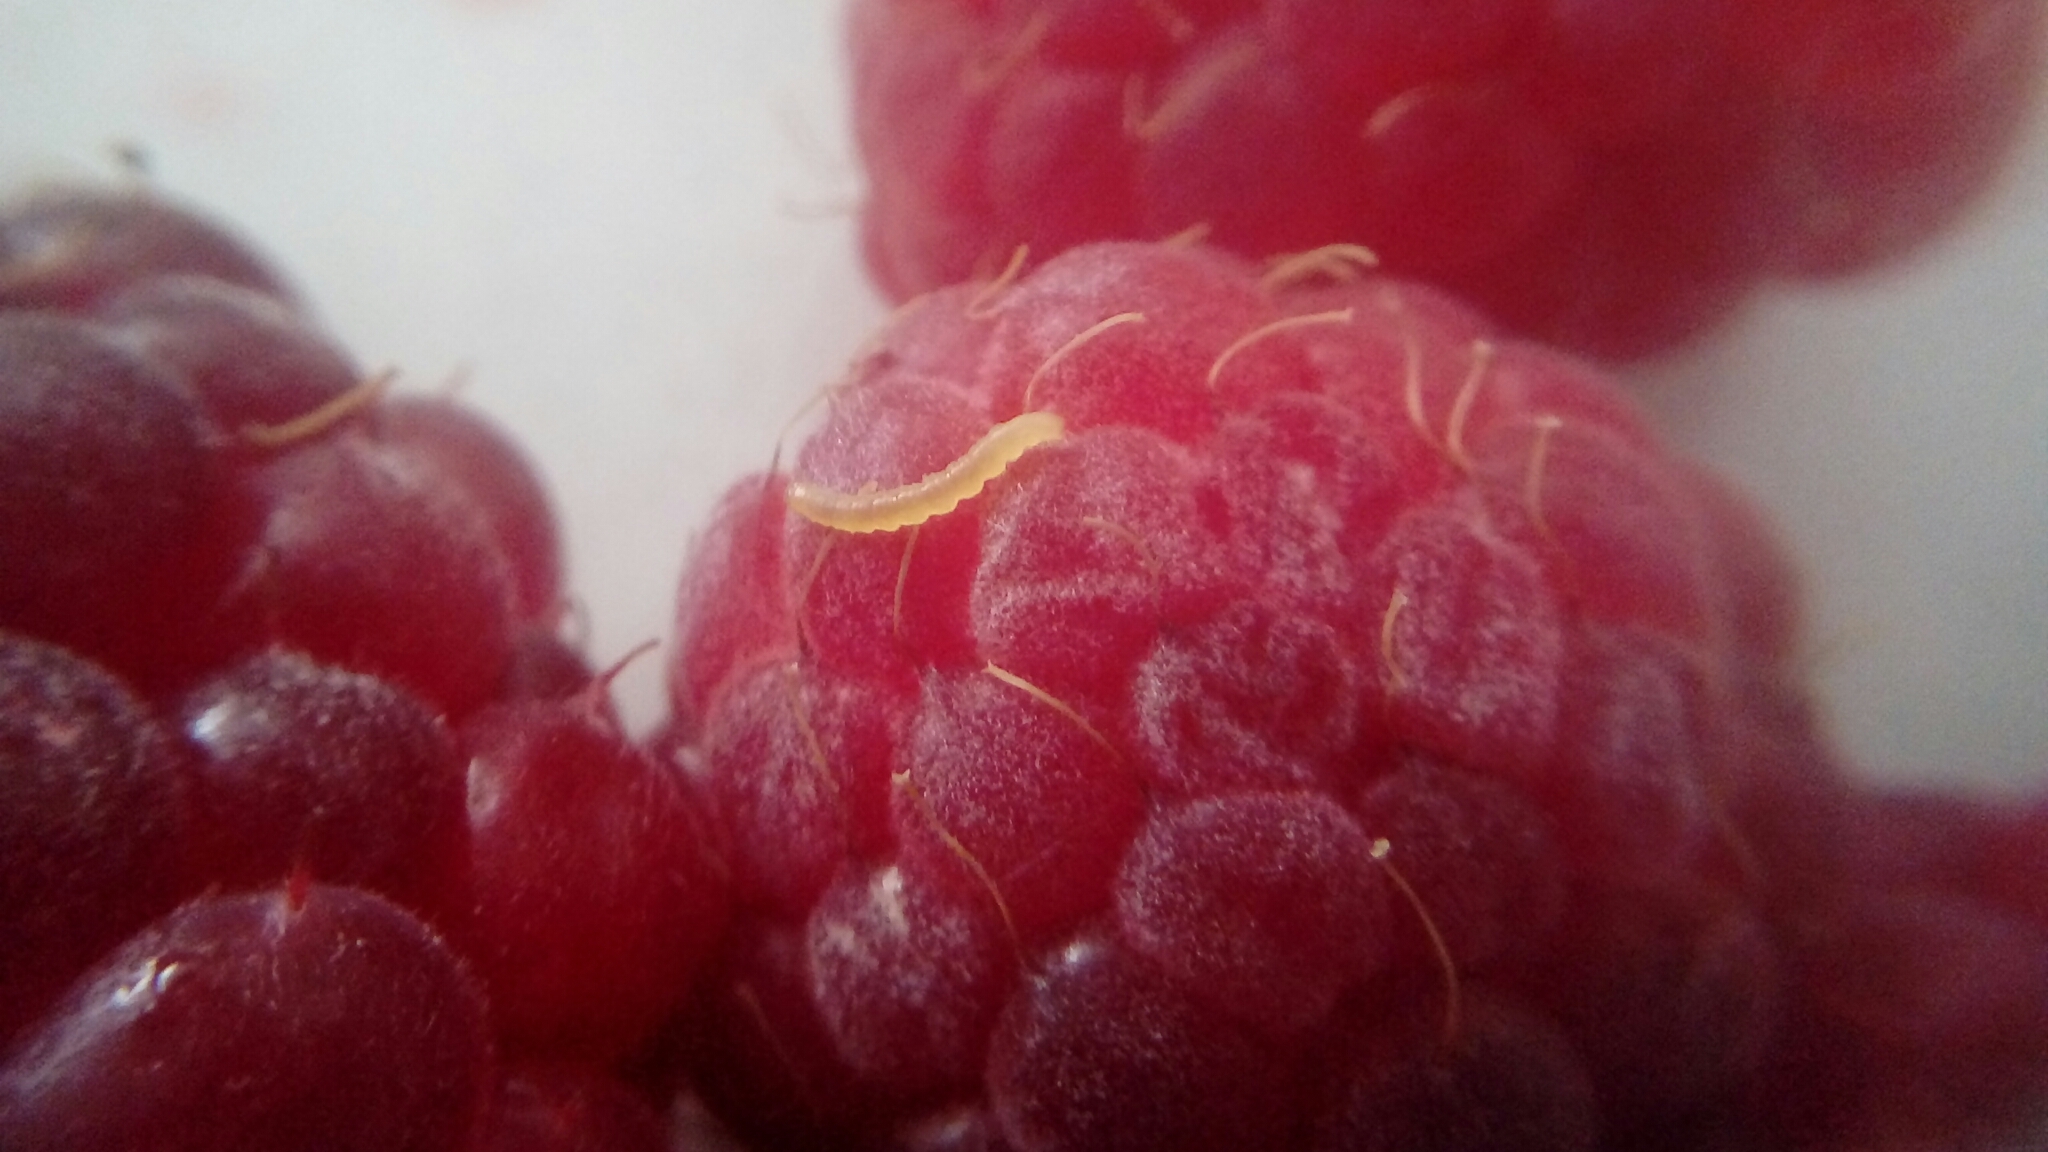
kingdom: Animalia
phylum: Arthropoda
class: Insecta
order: Coleoptera
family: Byturidae
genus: Byturus
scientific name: Byturus tomentosus
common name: Beetle
